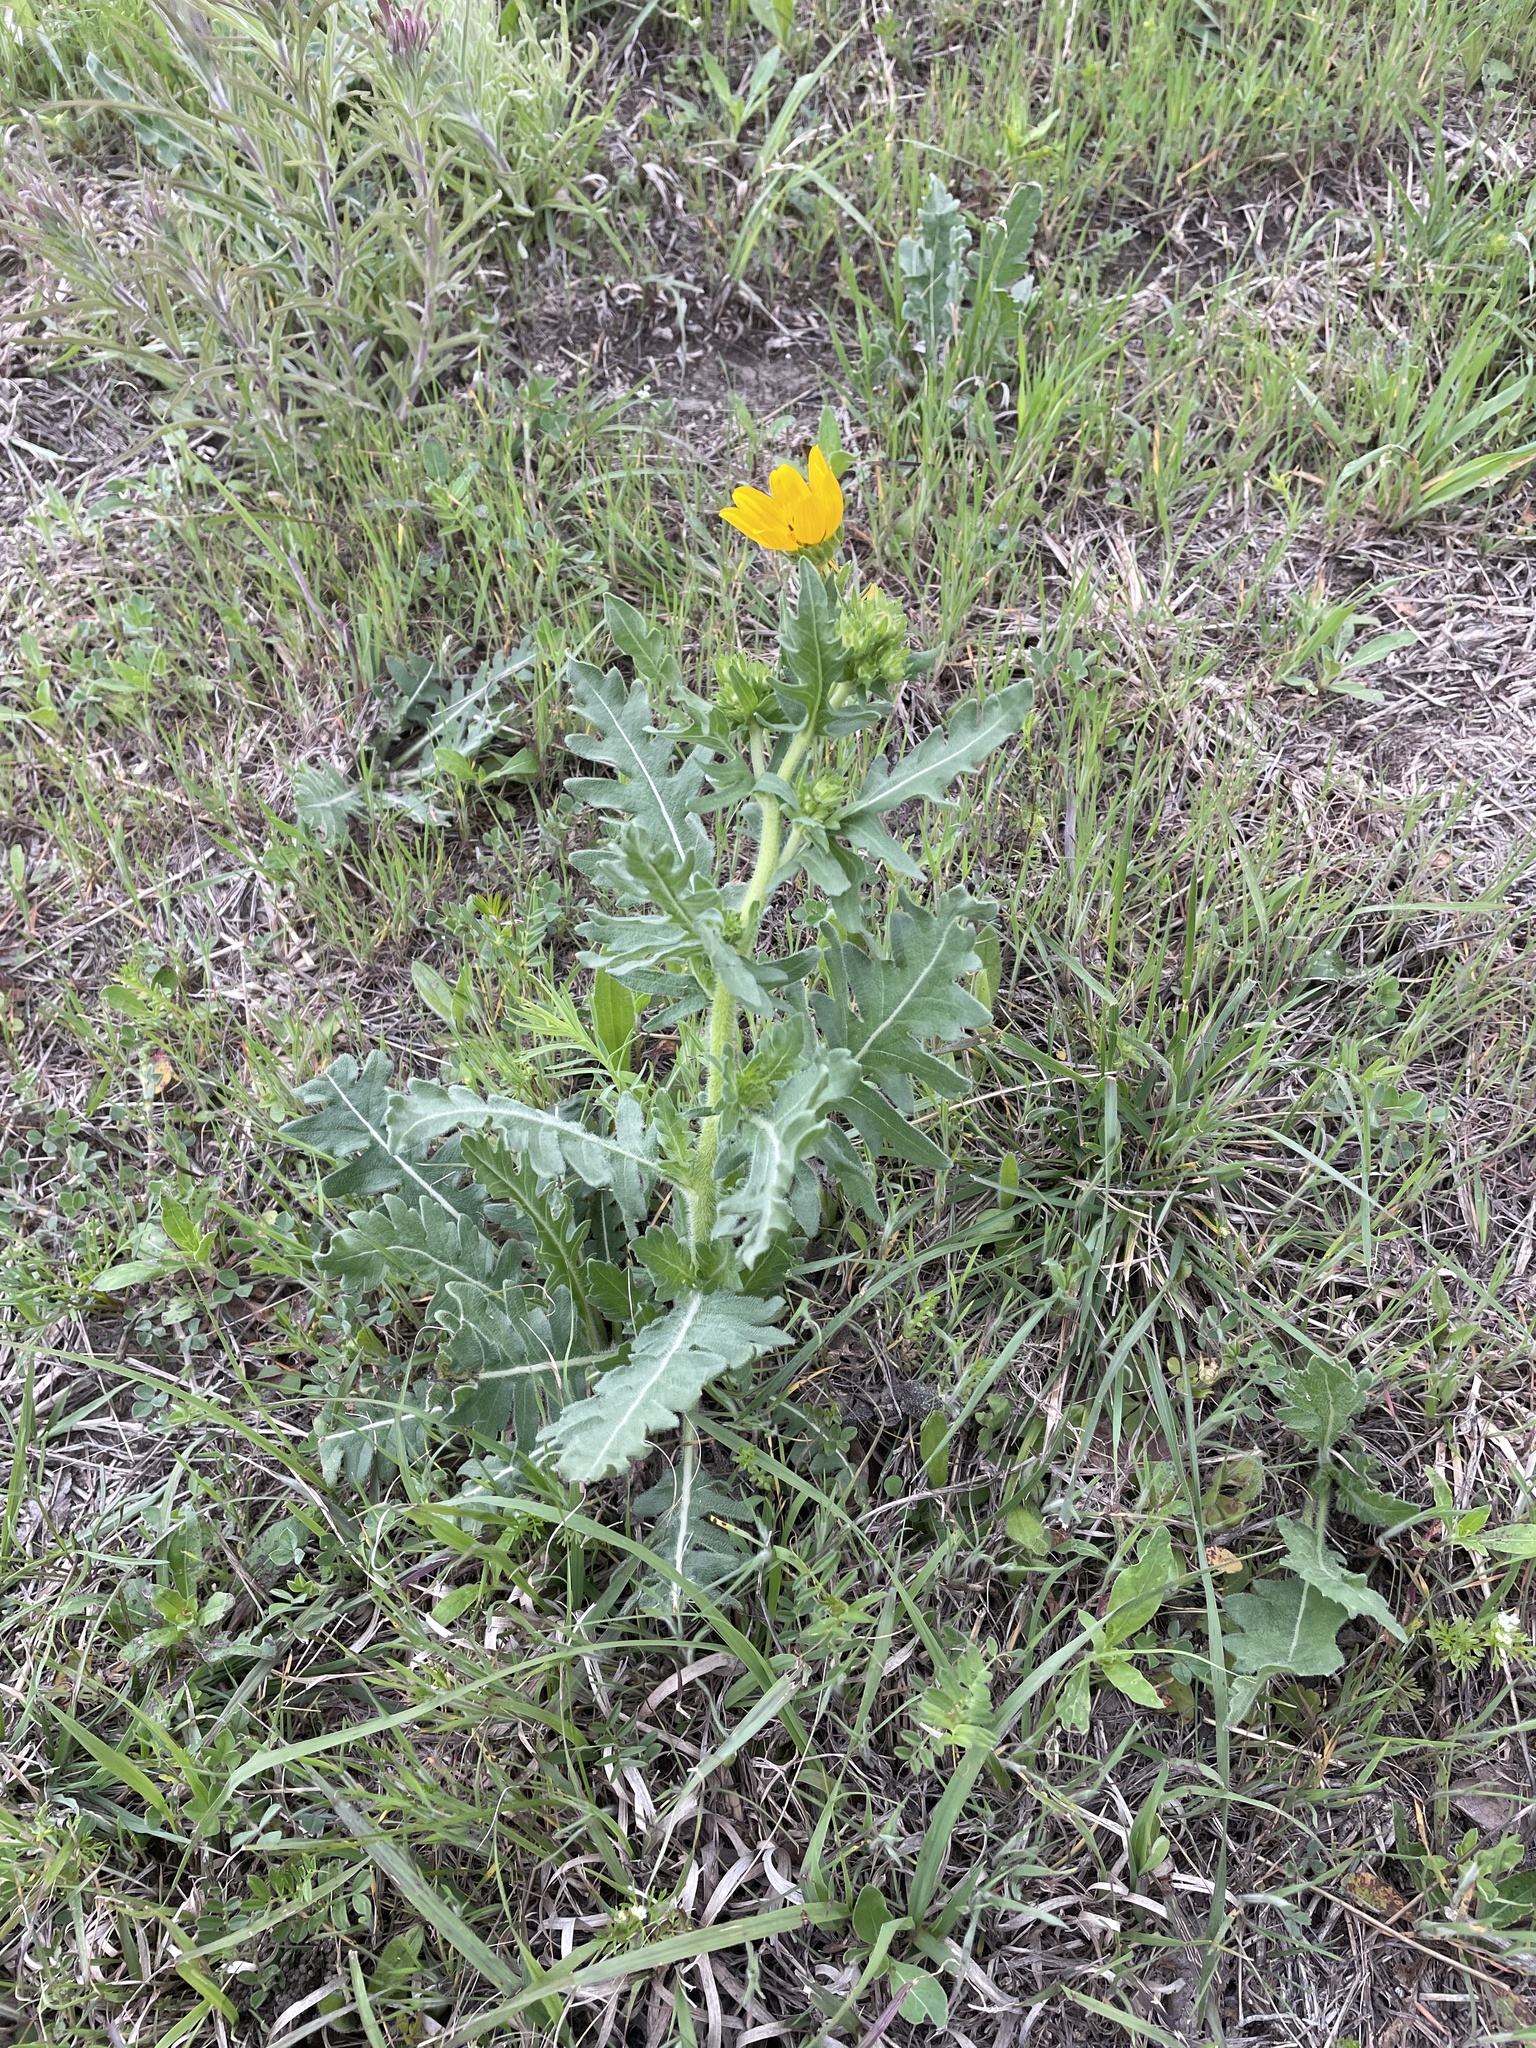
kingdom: Plantae
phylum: Tracheophyta
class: Magnoliopsida
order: Asterales
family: Asteraceae
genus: Engelmannia
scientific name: Engelmannia peristenia
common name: Engelmann's daisy
